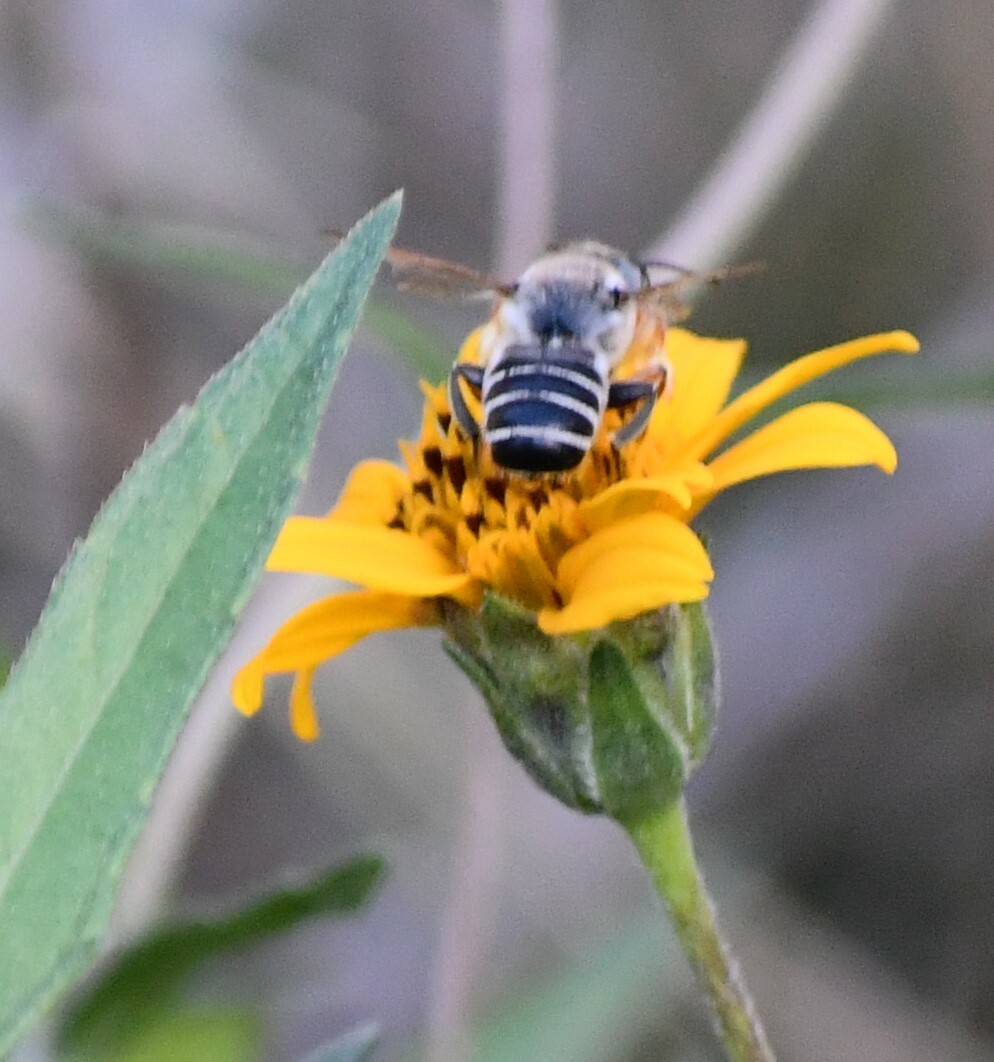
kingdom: Animalia
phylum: Arthropoda
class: Insecta
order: Hymenoptera
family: Megachilidae
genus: Megachile
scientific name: Megachile policaris
